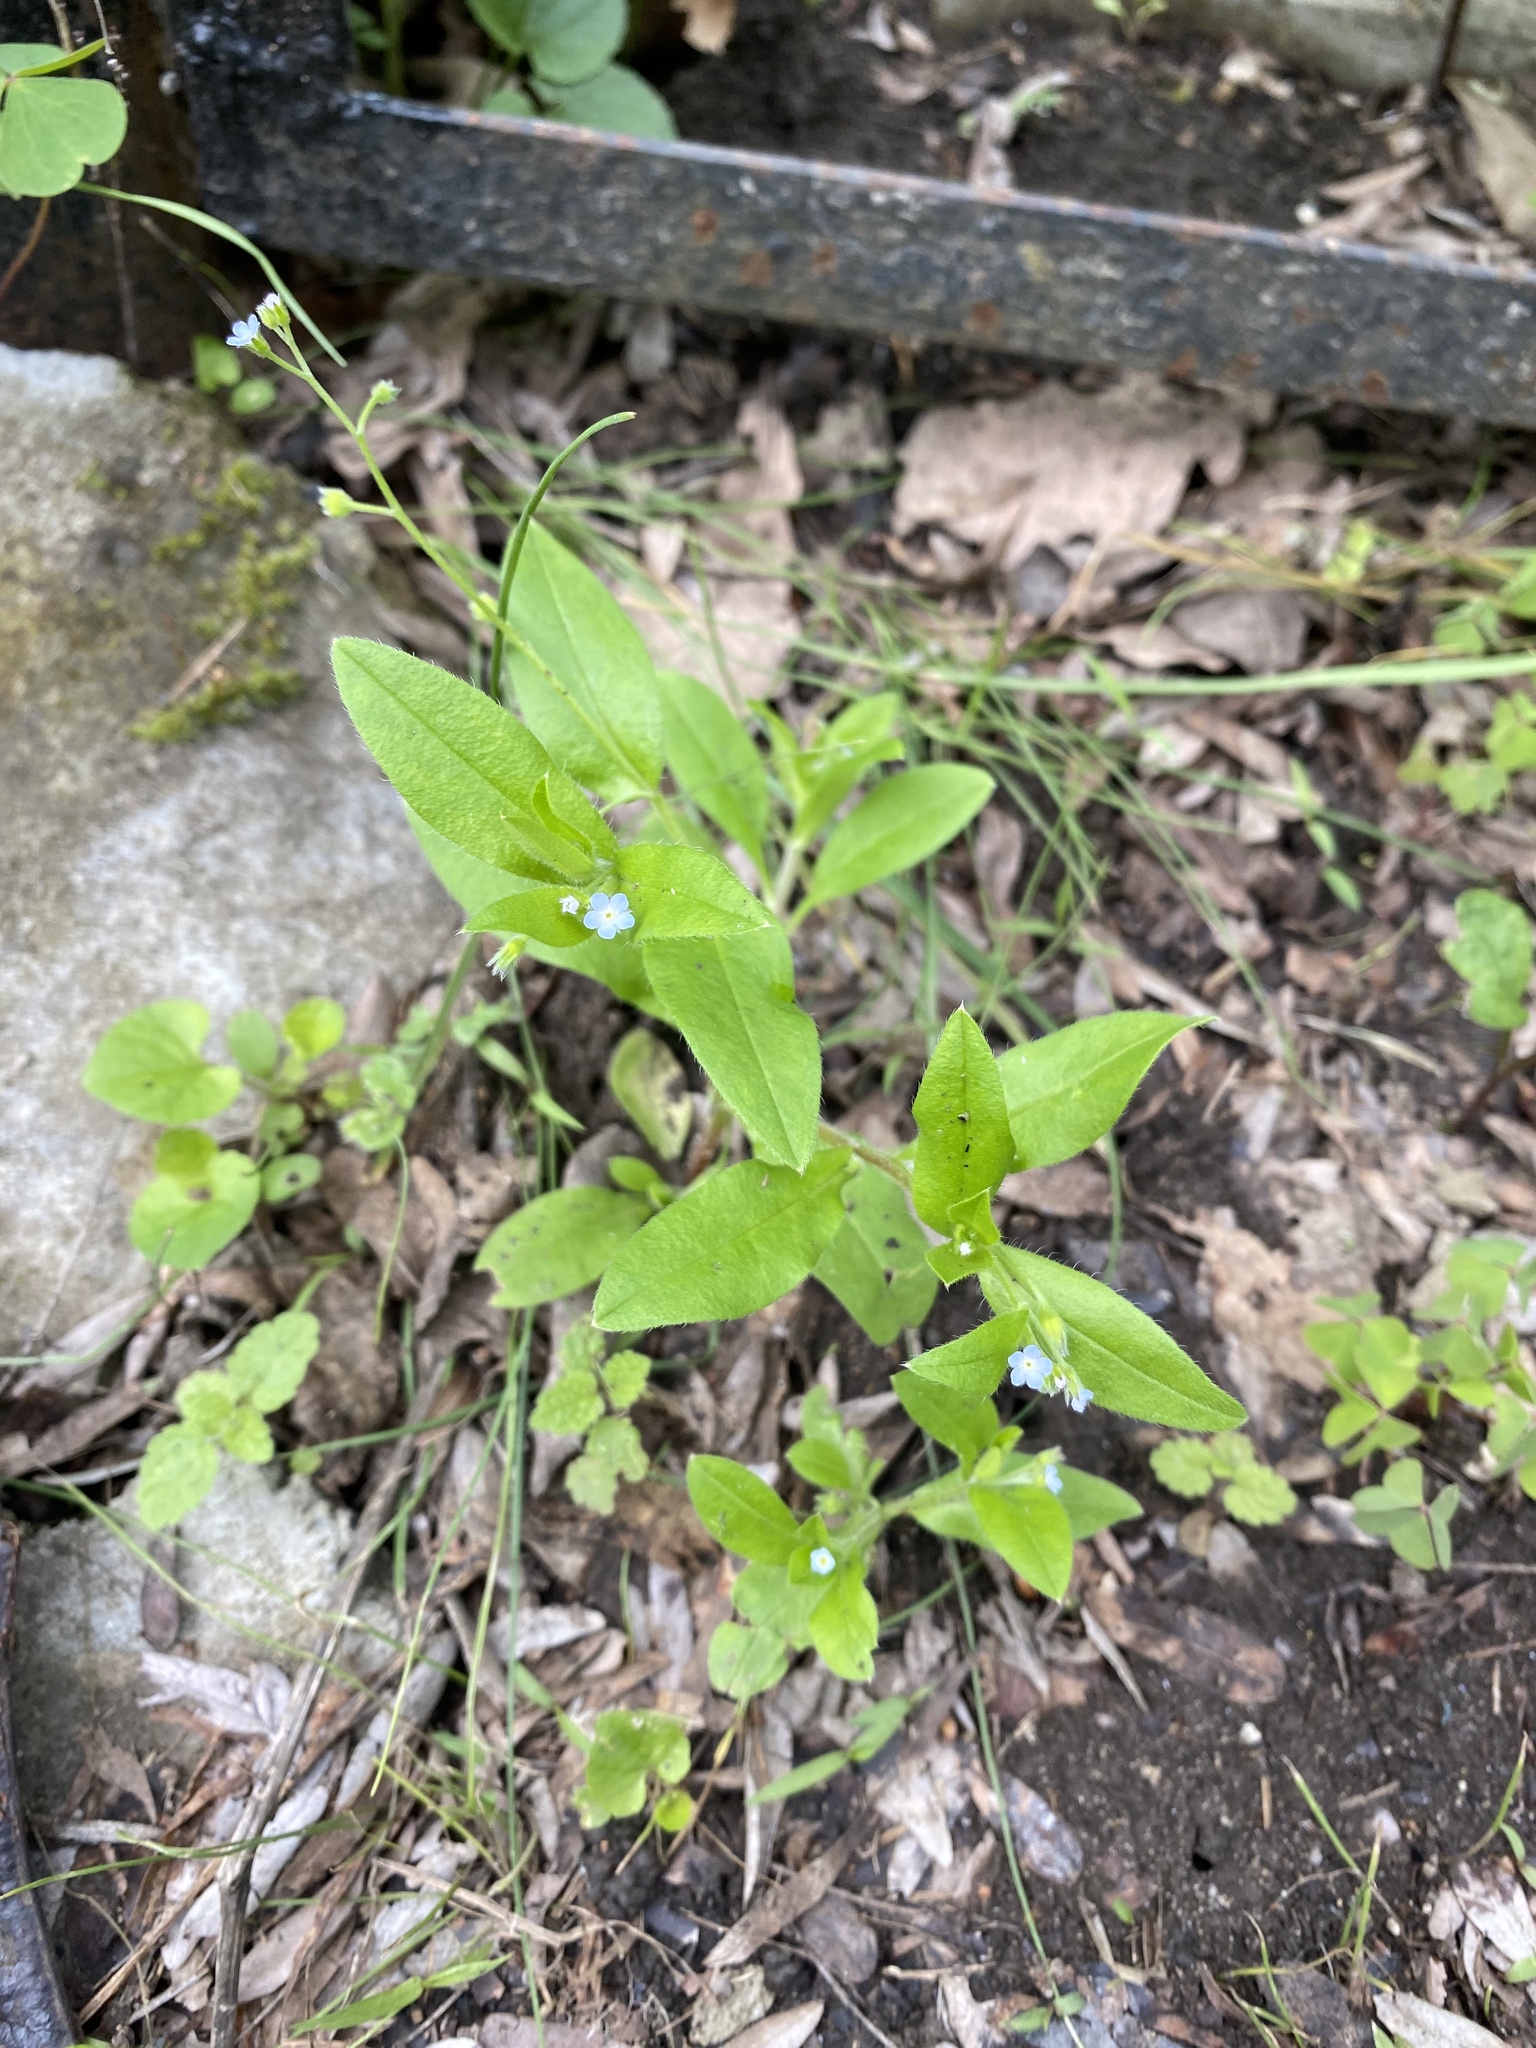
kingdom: Plantae
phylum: Tracheophyta
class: Magnoliopsida
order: Boraginales
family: Boraginaceae
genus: Myosotis
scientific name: Myosotis sparsiflora
